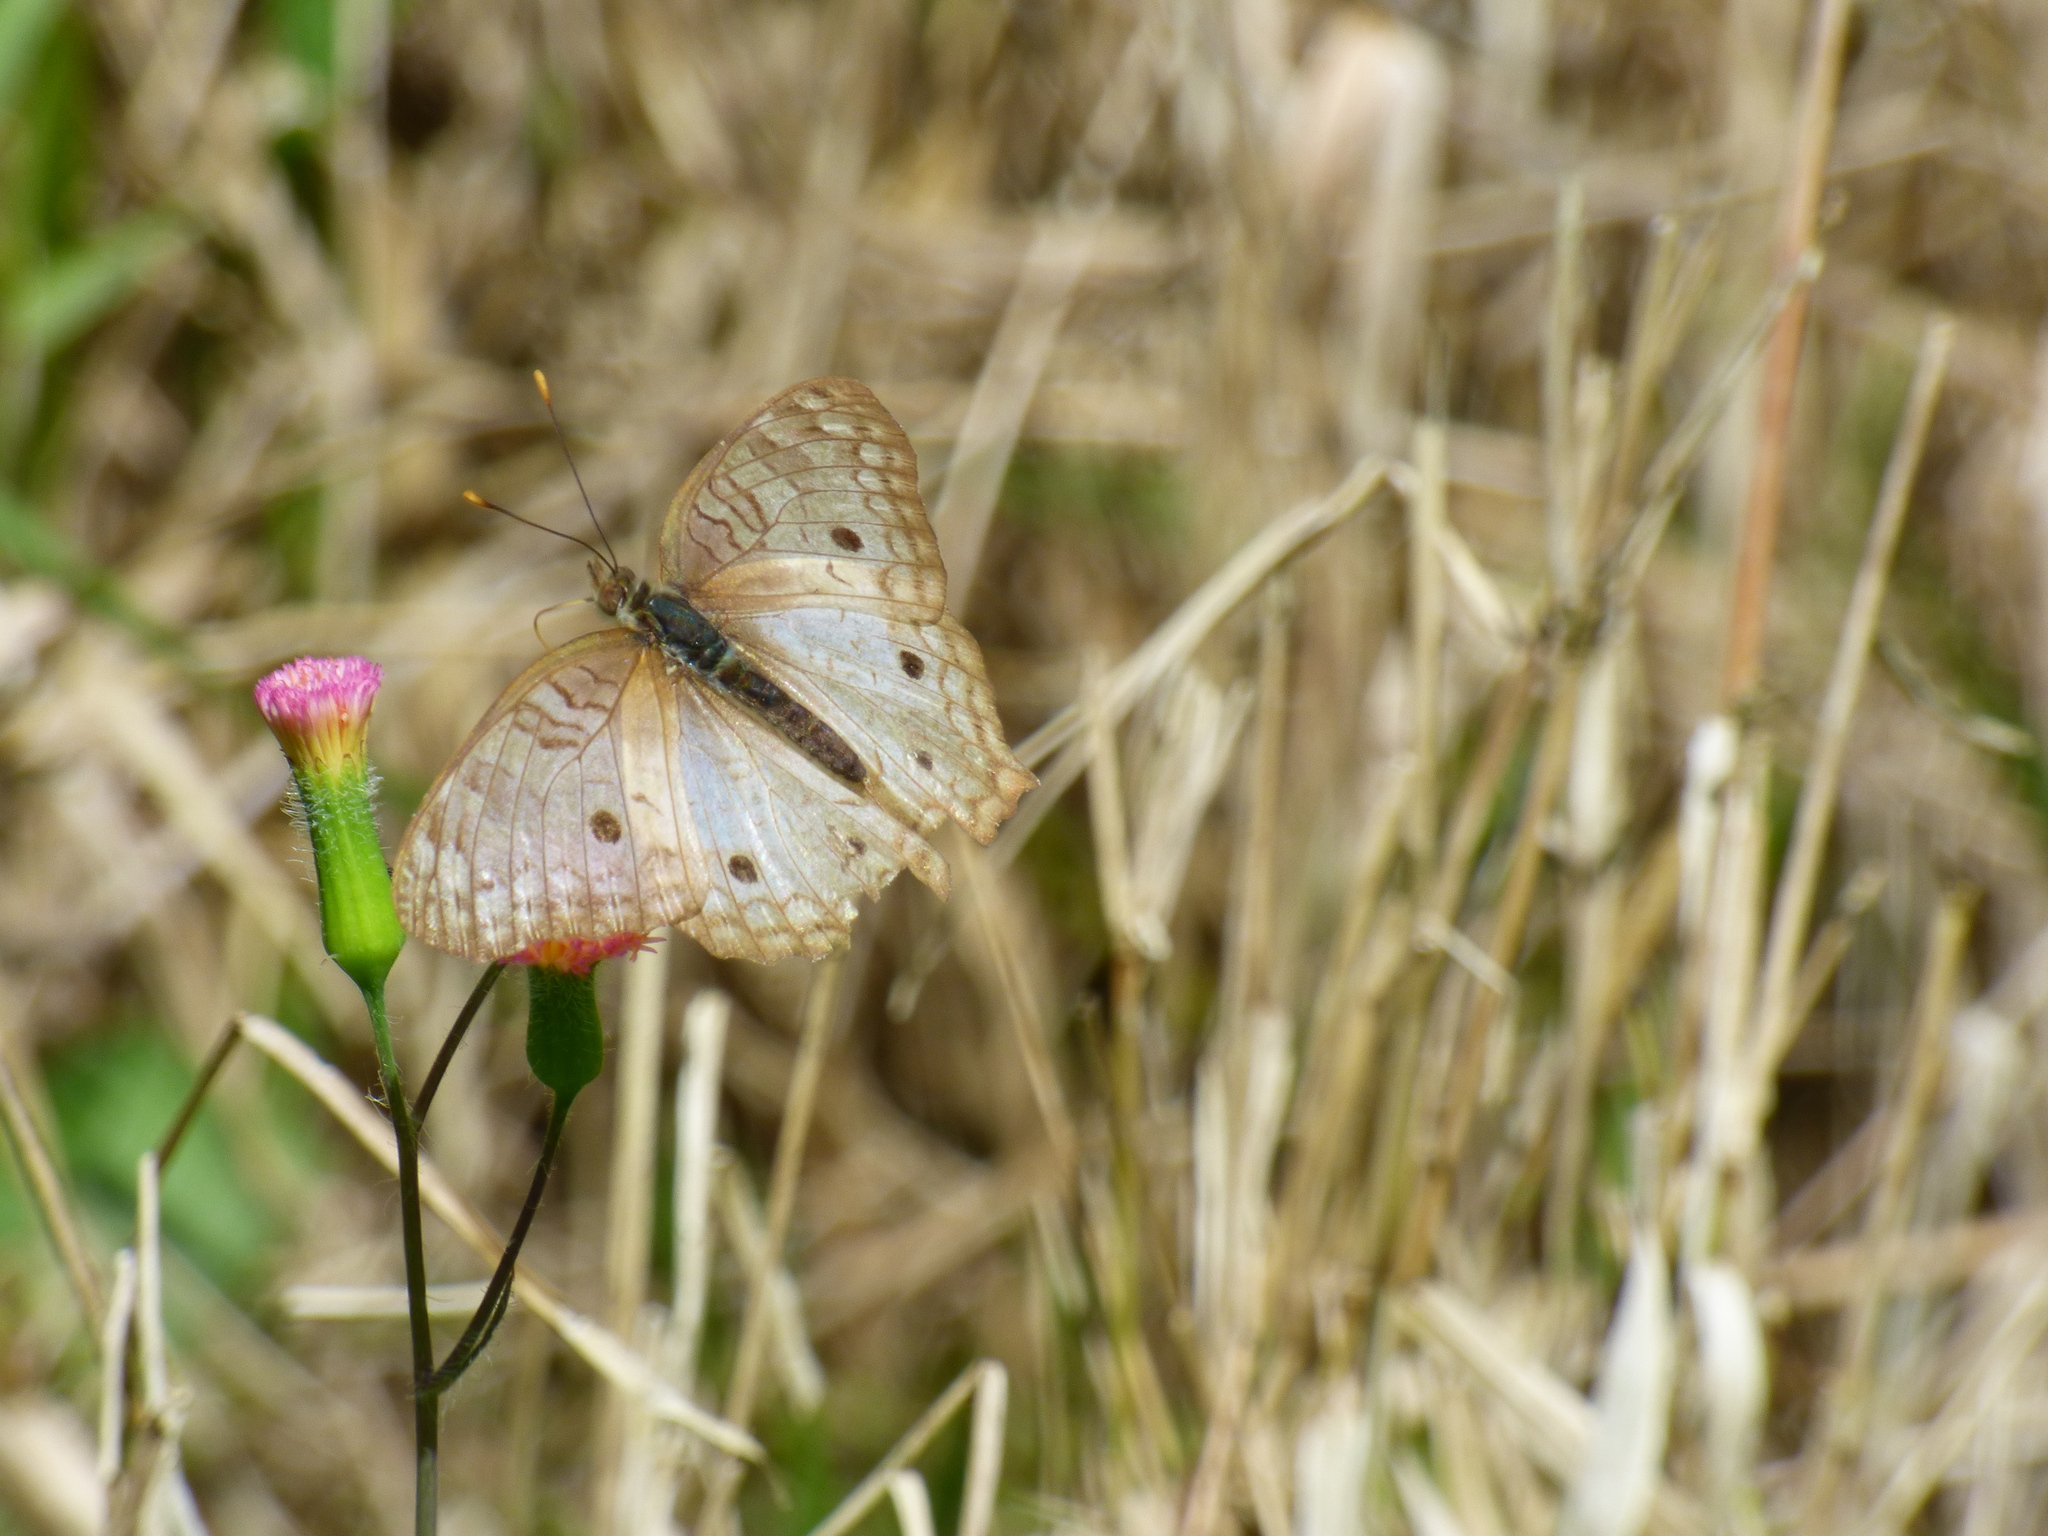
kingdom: Animalia
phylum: Arthropoda
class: Insecta
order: Lepidoptera
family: Nymphalidae
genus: Anartia
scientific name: Anartia jatrophae
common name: White peacock
